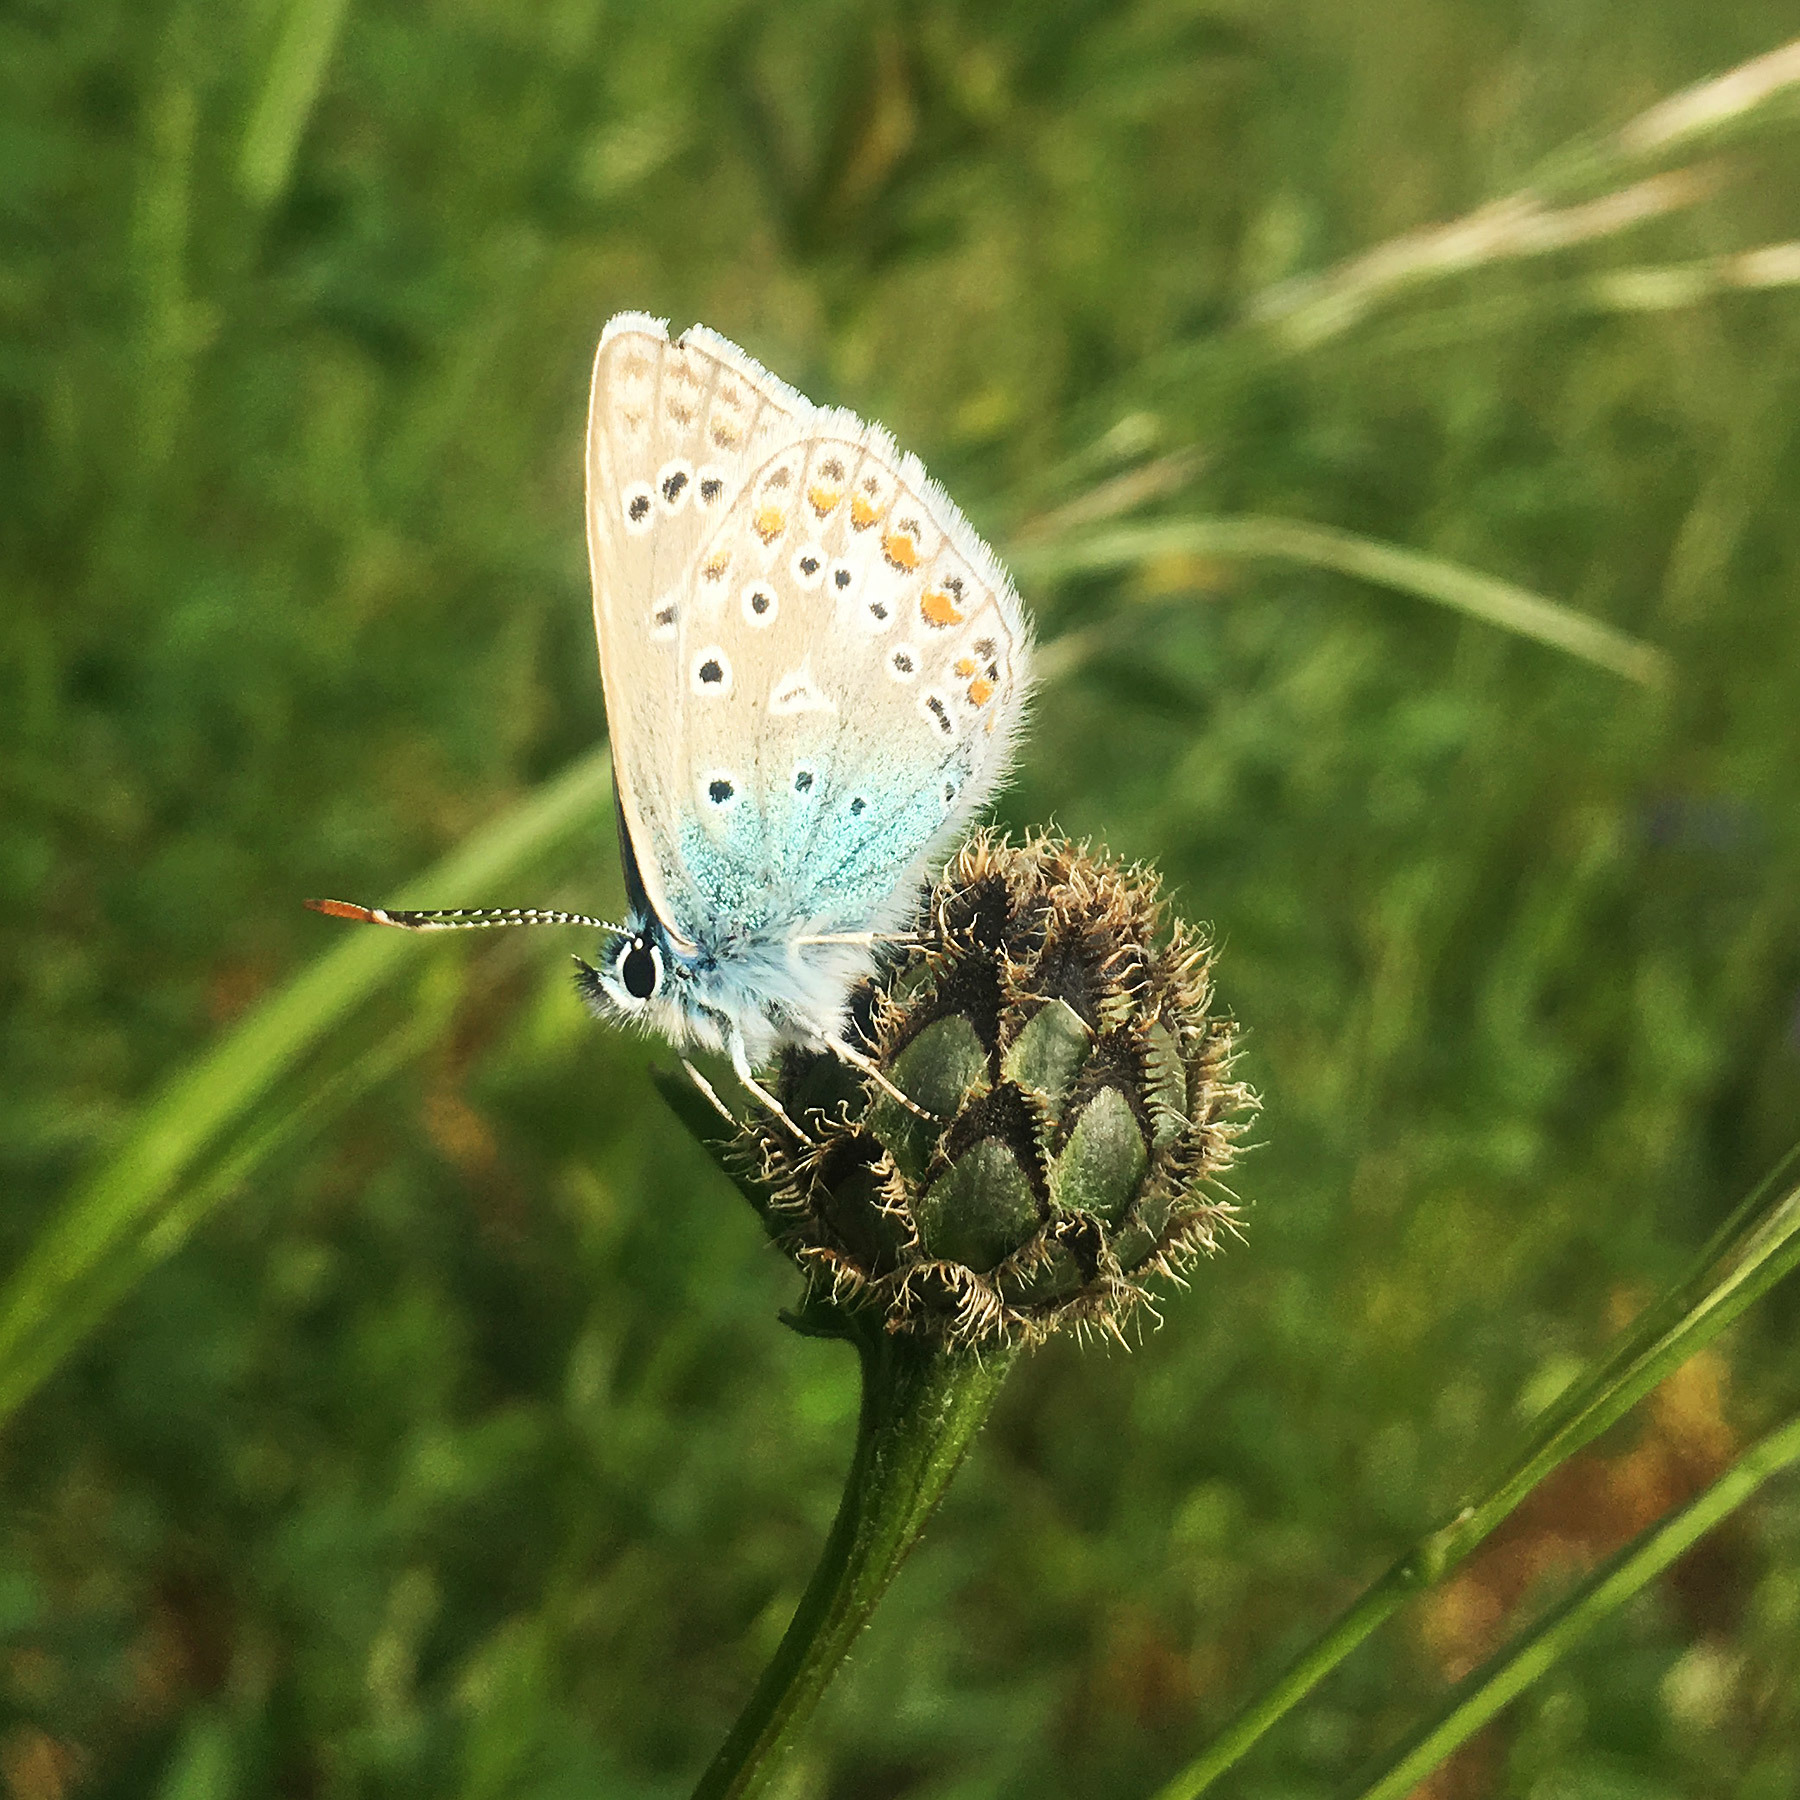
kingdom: Animalia
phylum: Arthropoda
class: Insecta
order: Lepidoptera
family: Lycaenidae
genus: Polyommatus
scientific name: Polyommatus icarus
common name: Common blue
